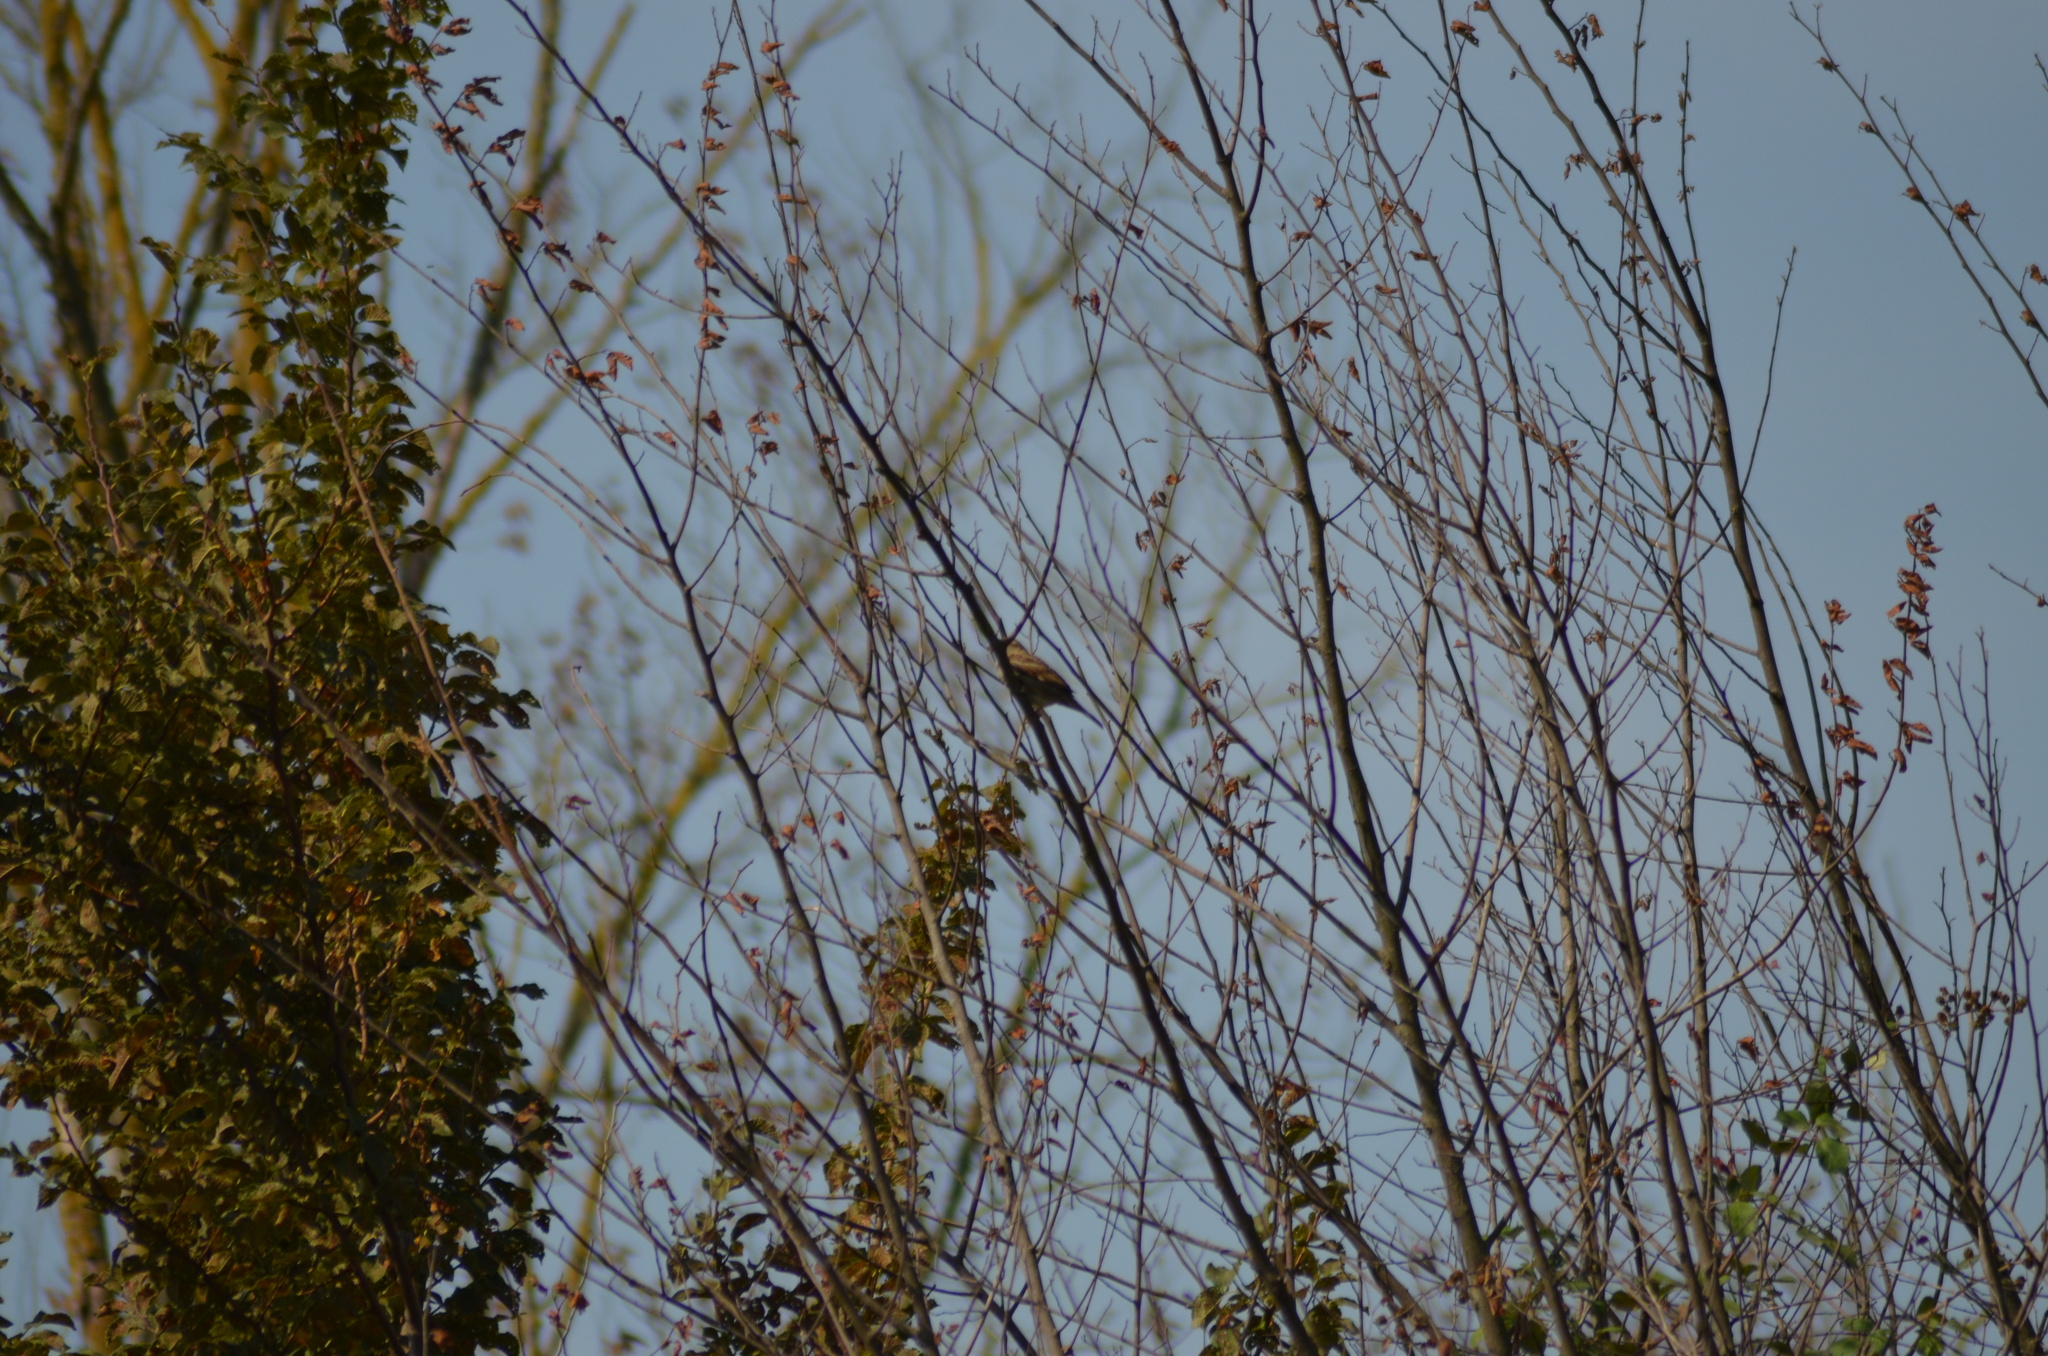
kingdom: Animalia
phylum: Chordata
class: Aves
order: Passeriformes
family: Passeridae
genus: Passer
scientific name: Passer domesticus
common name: House sparrow
